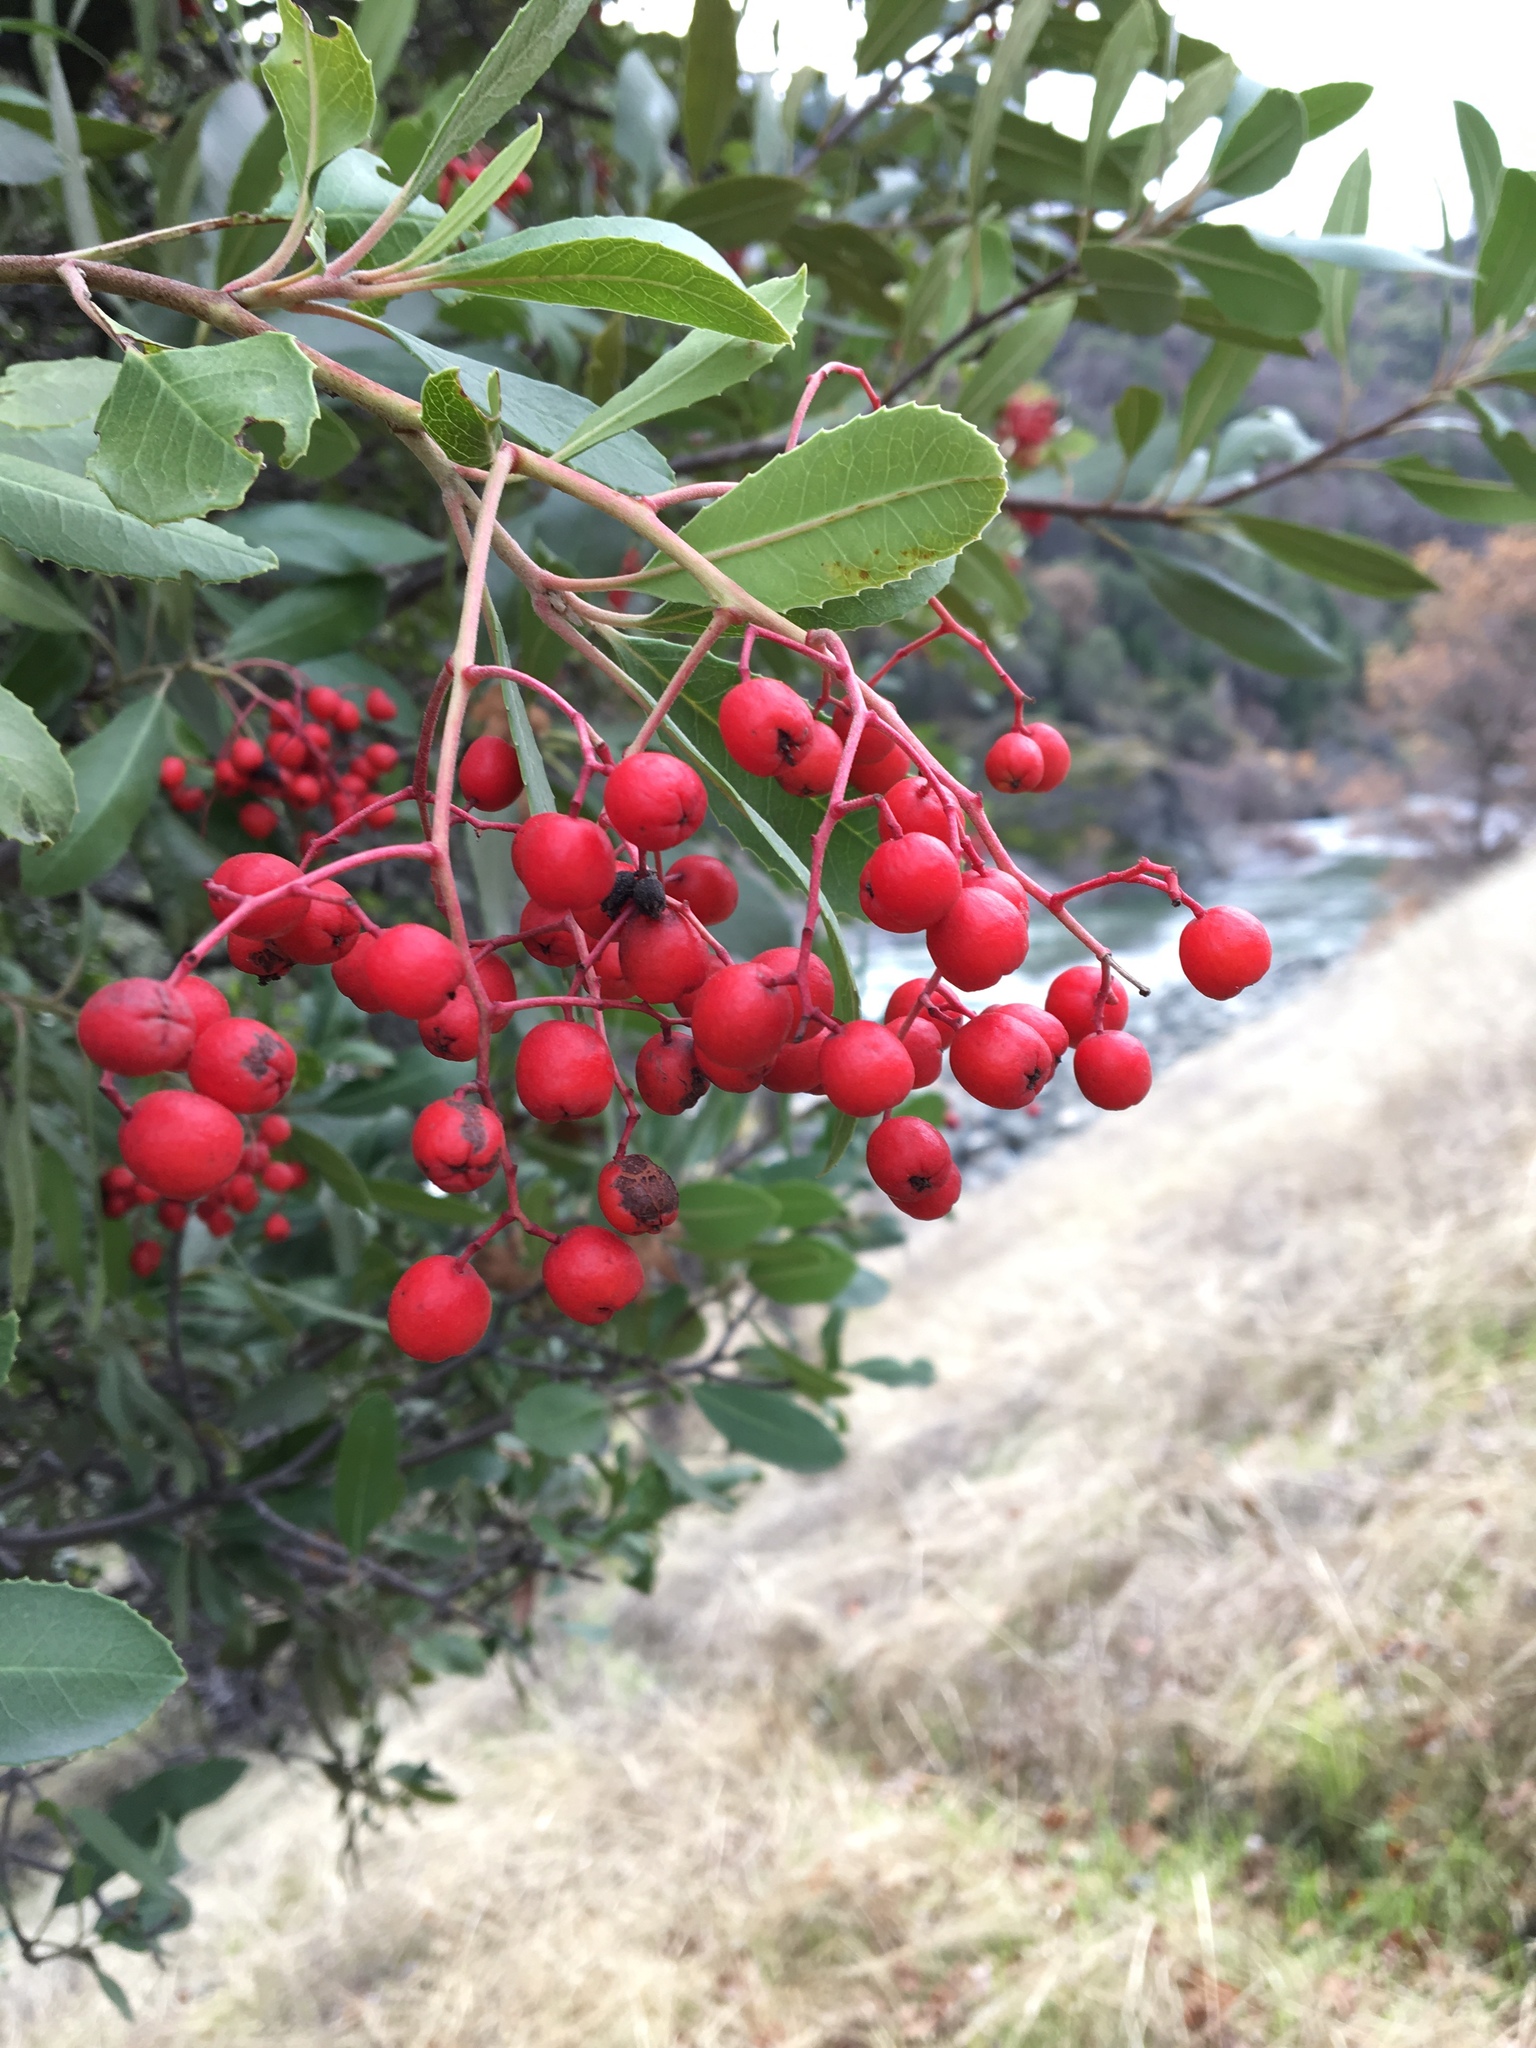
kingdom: Plantae
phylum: Tracheophyta
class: Magnoliopsida
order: Rosales
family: Rosaceae
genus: Heteromeles
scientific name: Heteromeles arbutifolia
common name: California-holly
